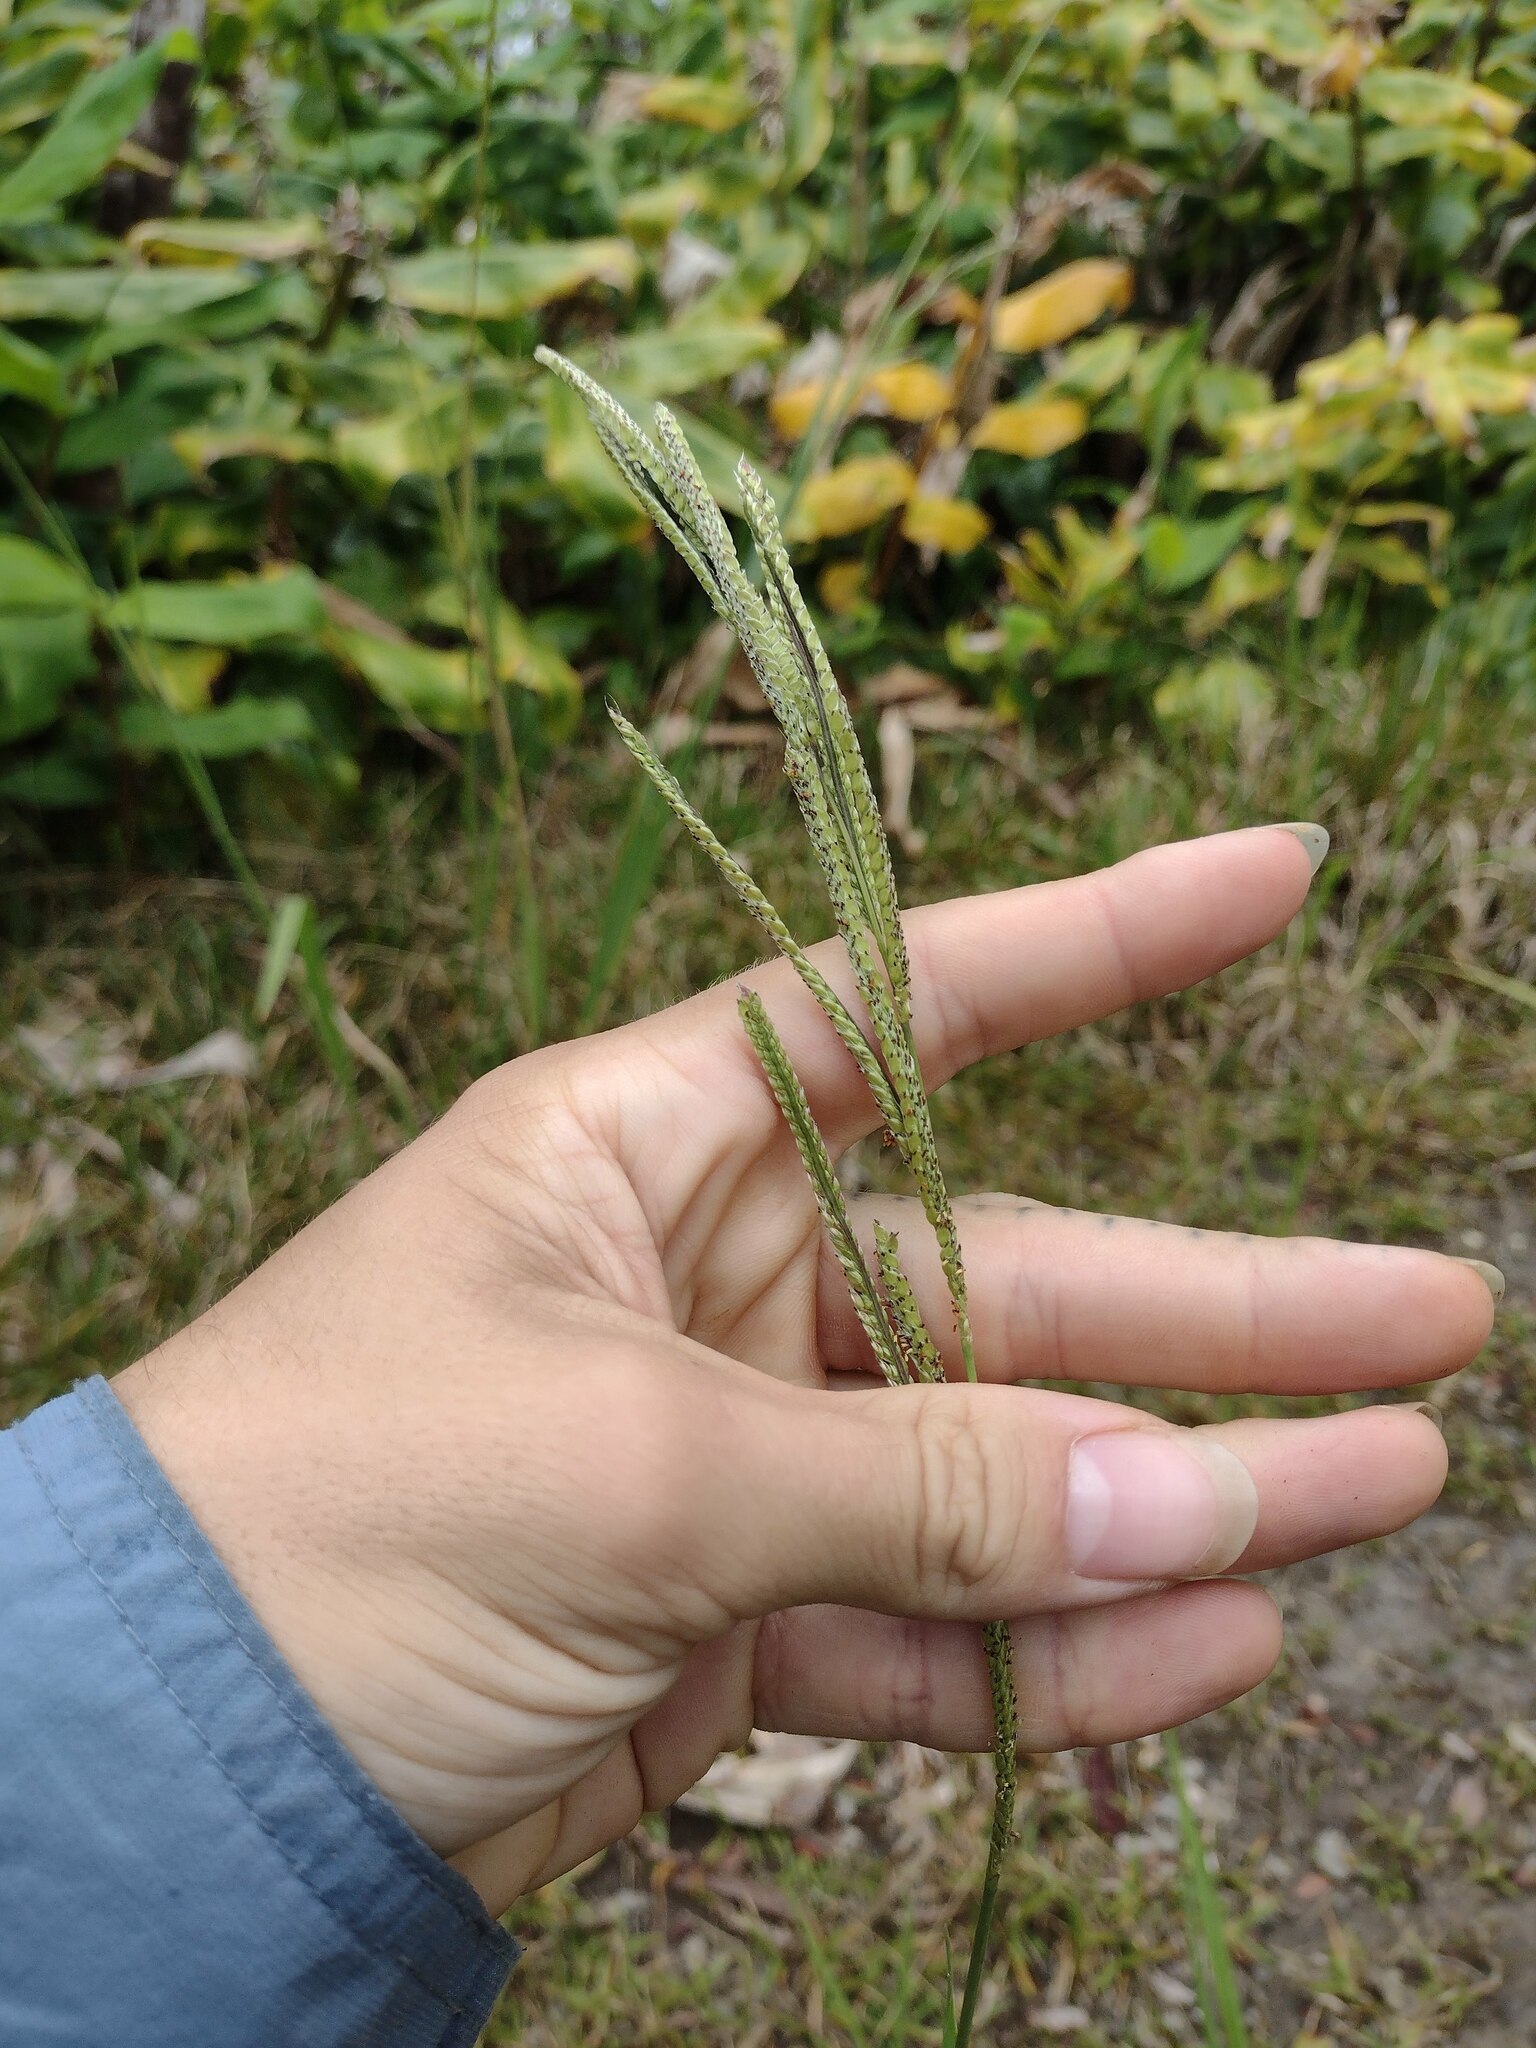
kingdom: Plantae
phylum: Tracheophyta
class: Liliopsida
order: Poales
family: Poaceae
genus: Paspalum
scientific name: Paspalum urvillei
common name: Vasey's grass
